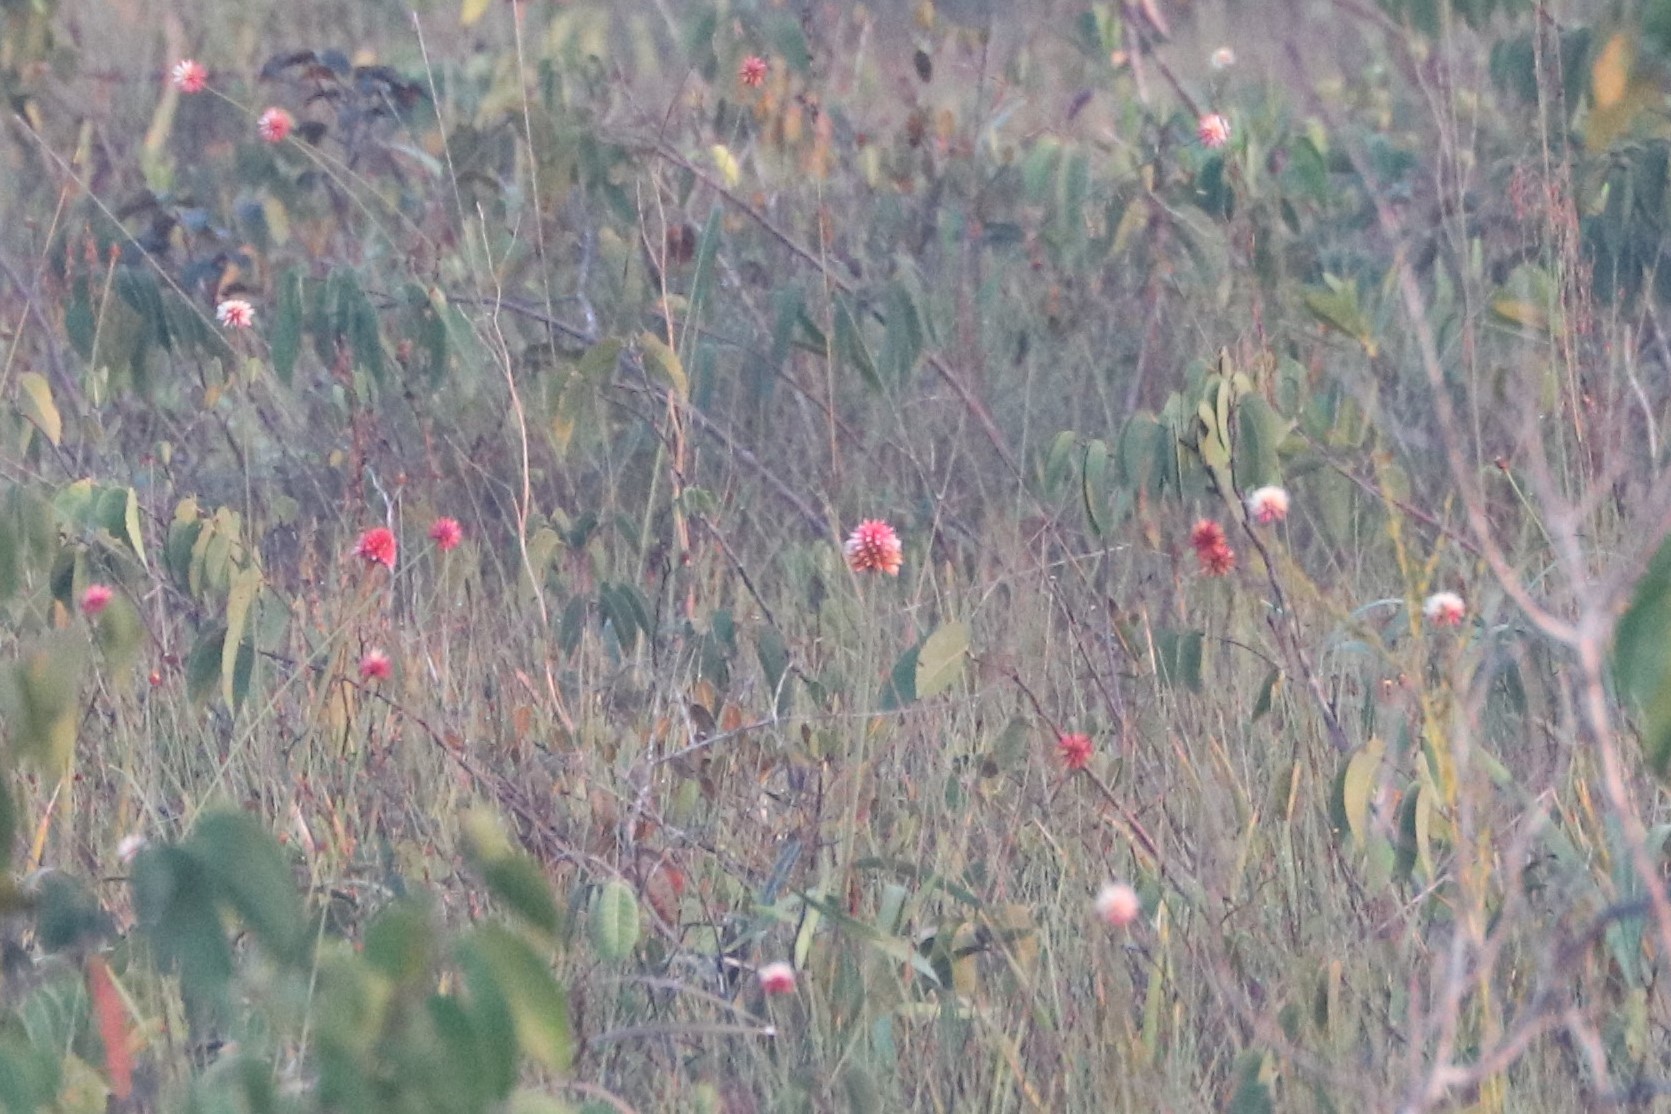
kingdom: Plantae
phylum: Tracheophyta
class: Liliopsida
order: Poales
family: Rapateaceae
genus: Schoenocephalium
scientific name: Schoenocephalium teretifolium
